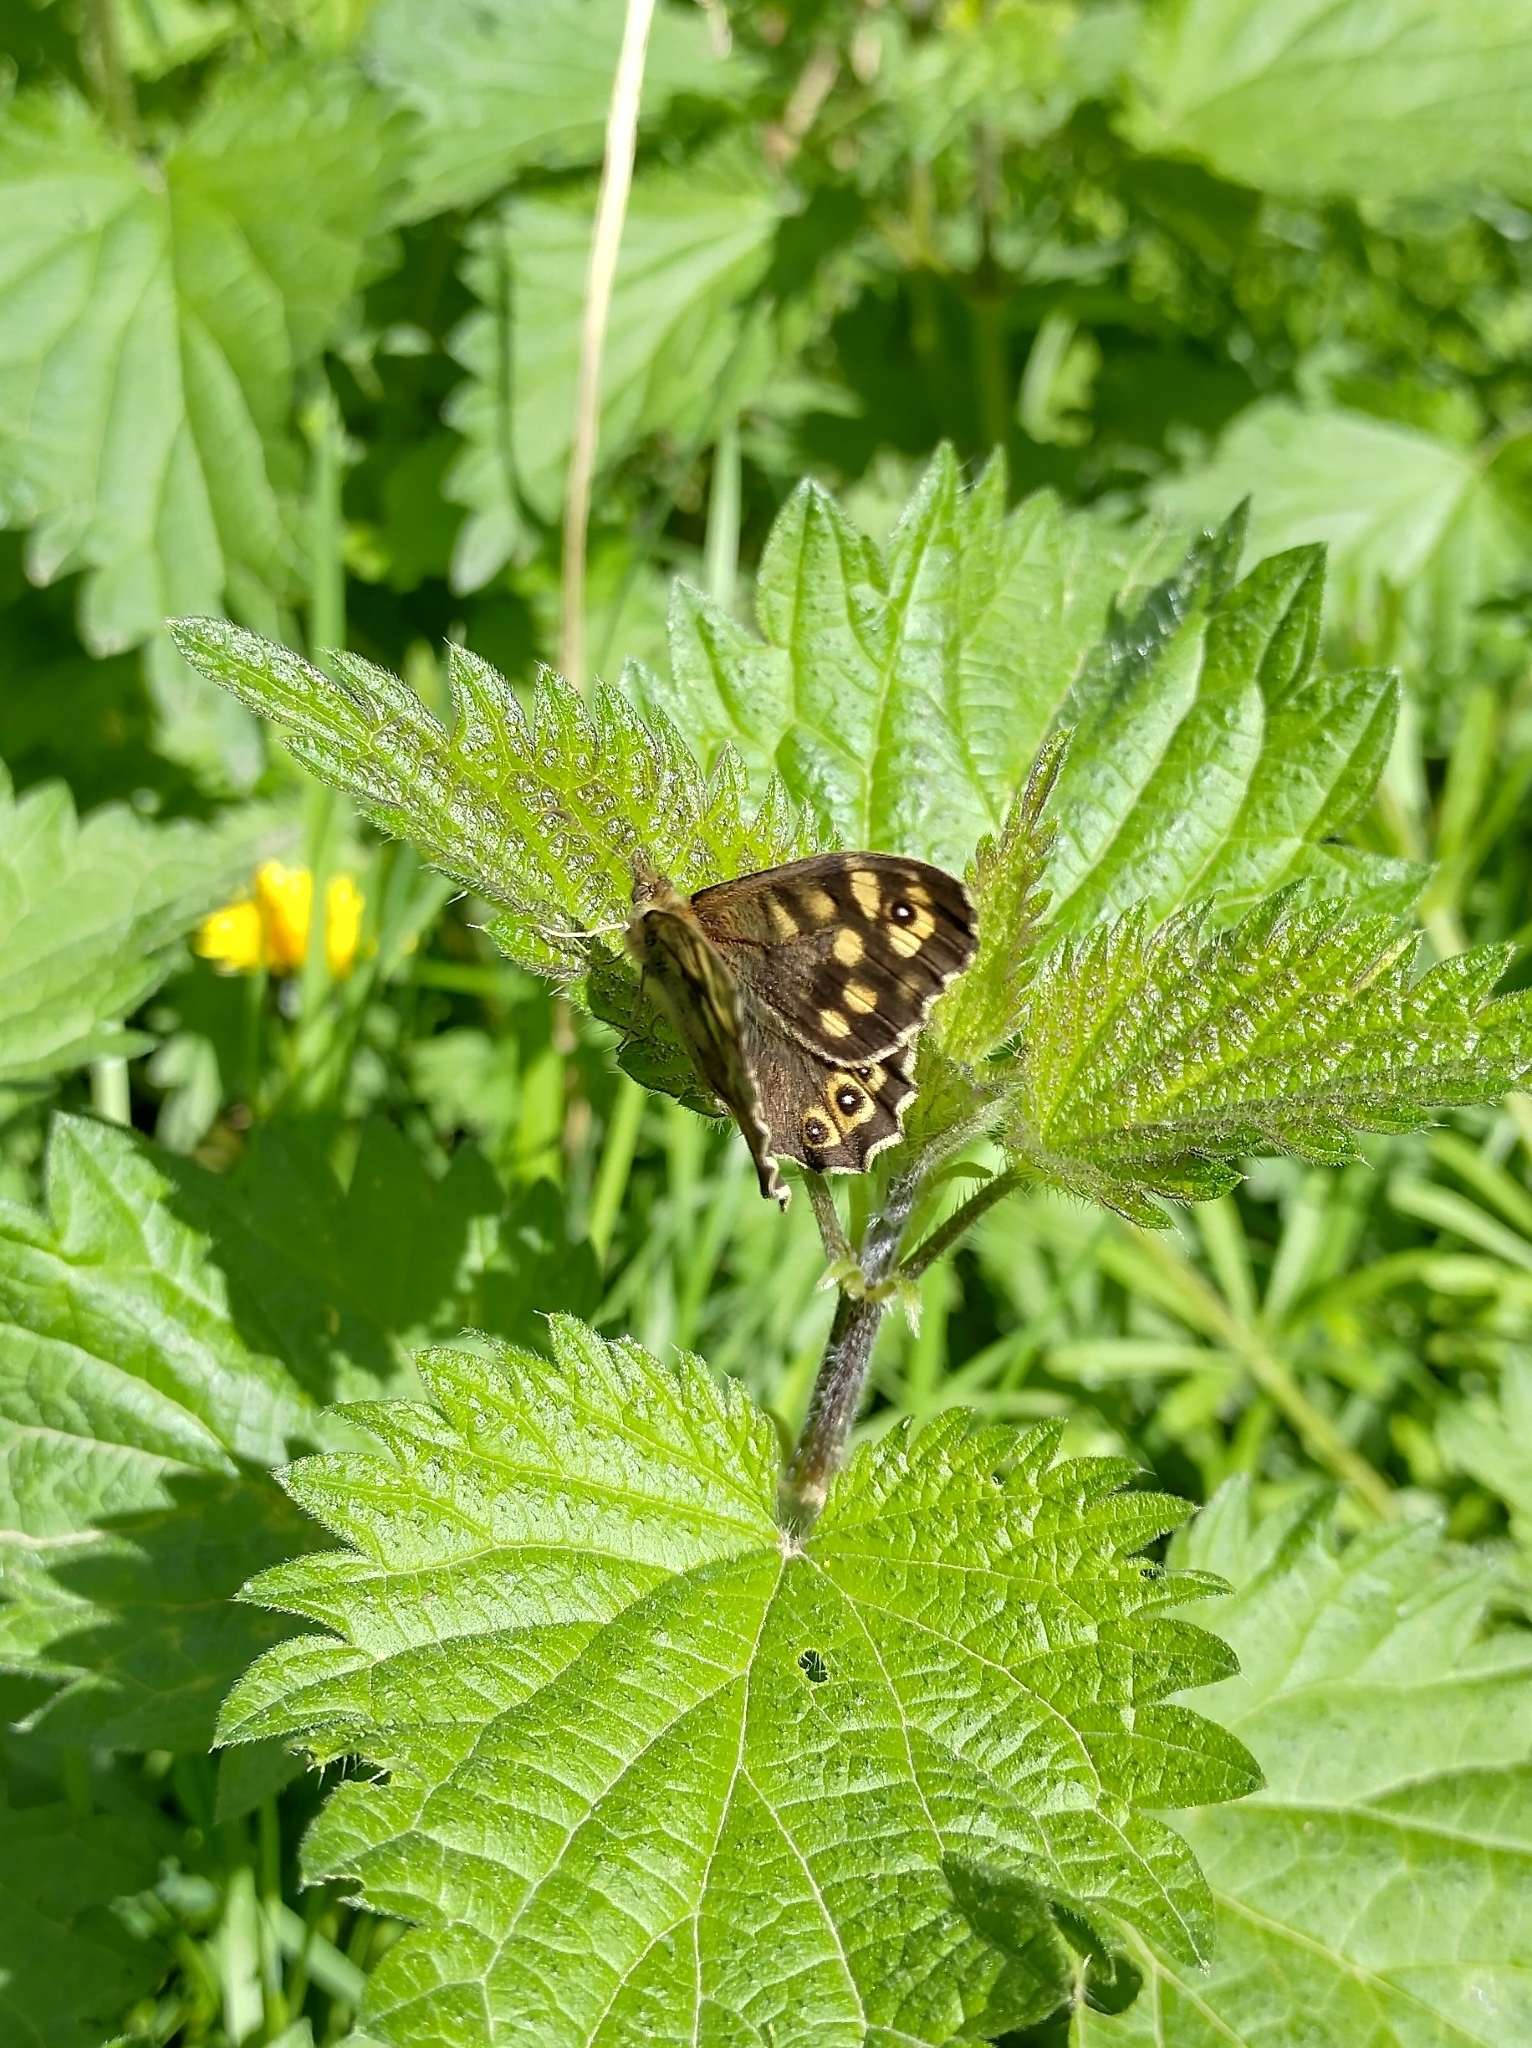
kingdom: Animalia
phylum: Arthropoda
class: Insecta
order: Lepidoptera
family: Nymphalidae
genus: Pararge
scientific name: Pararge aegeria
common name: Speckled wood
